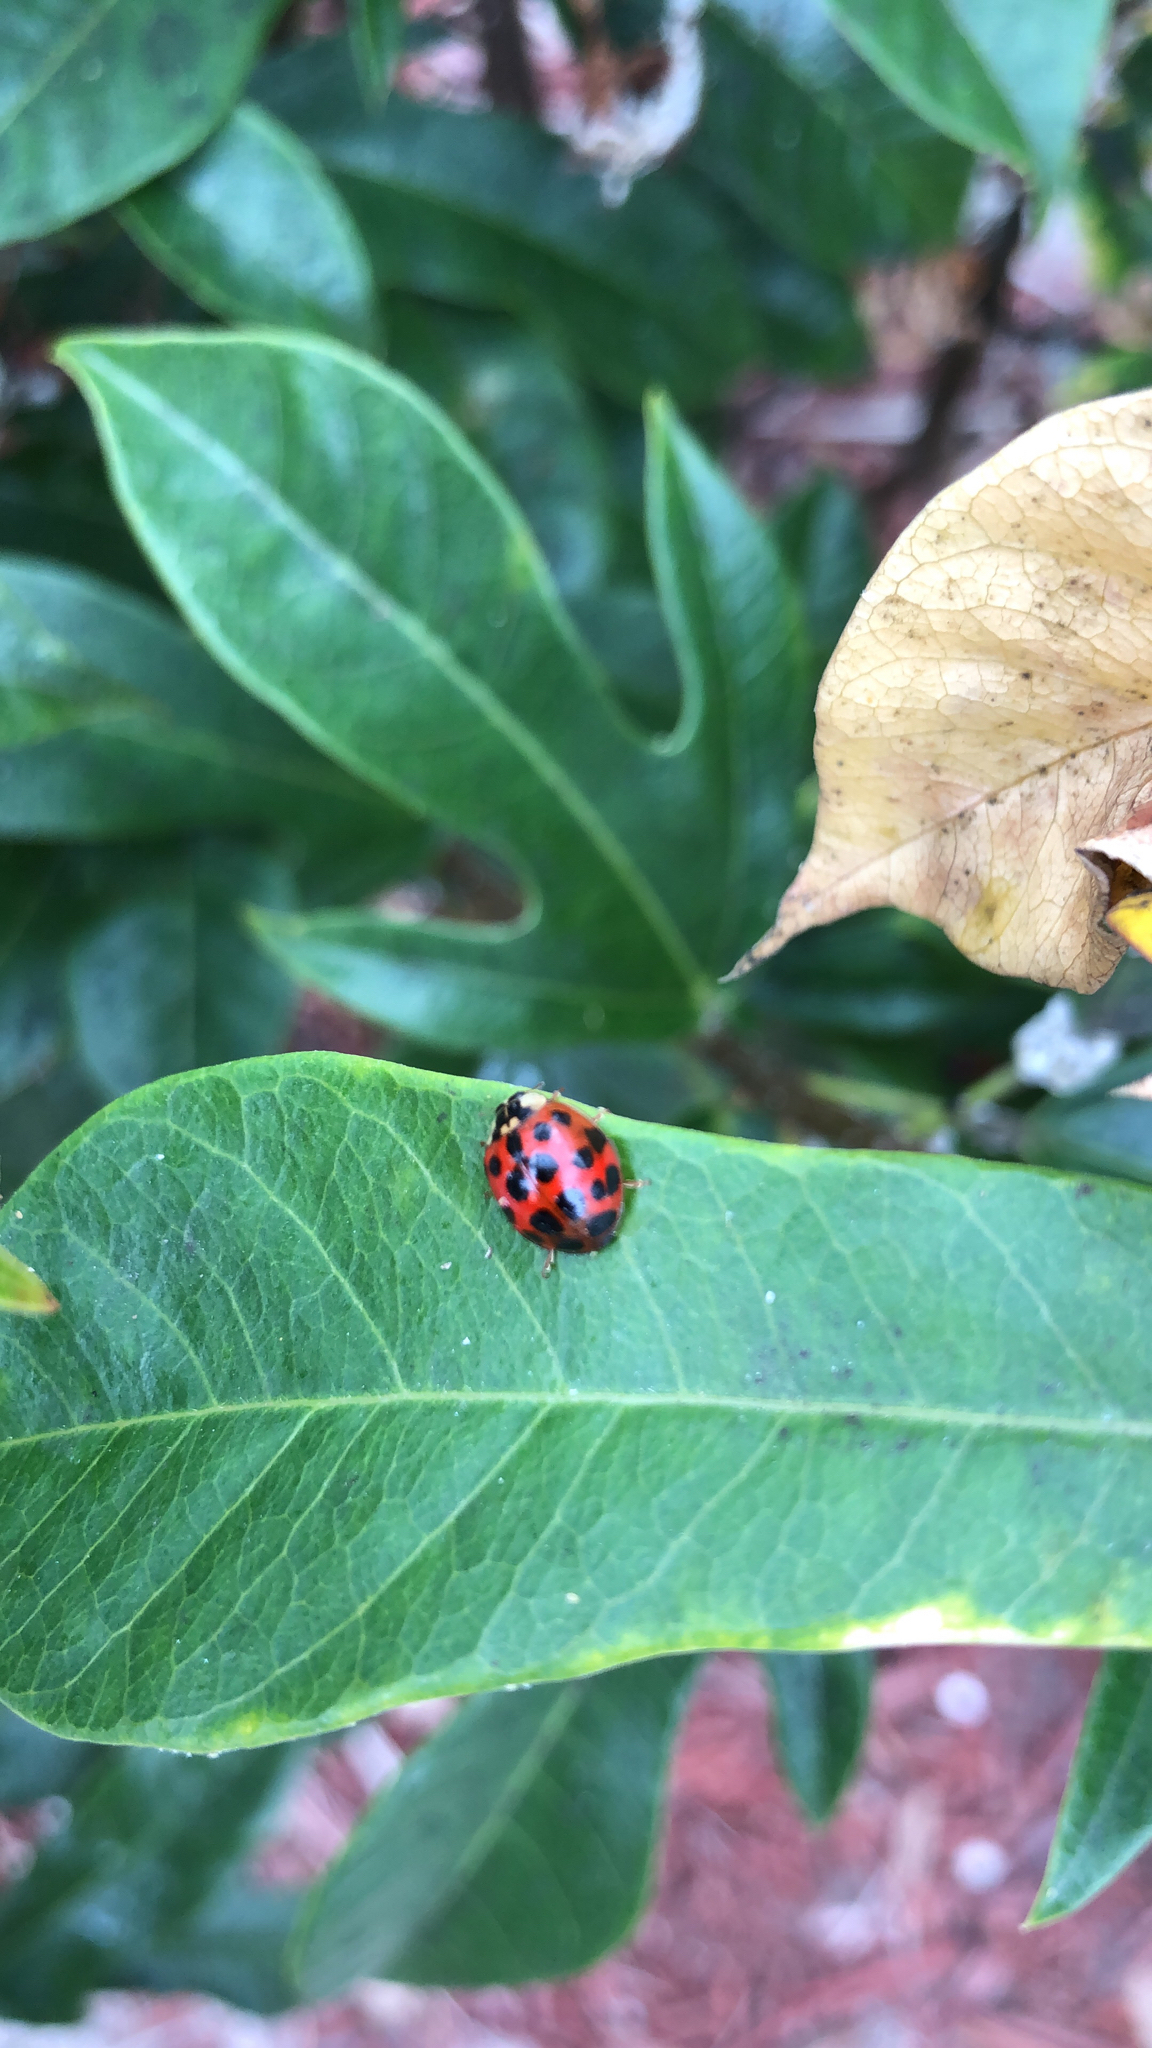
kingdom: Animalia
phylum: Arthropoda
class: Insecta
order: Coleoptera
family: Coccinellidae
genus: Harmonia
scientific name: Harmonia axyridis
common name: Harlequin ladybird
